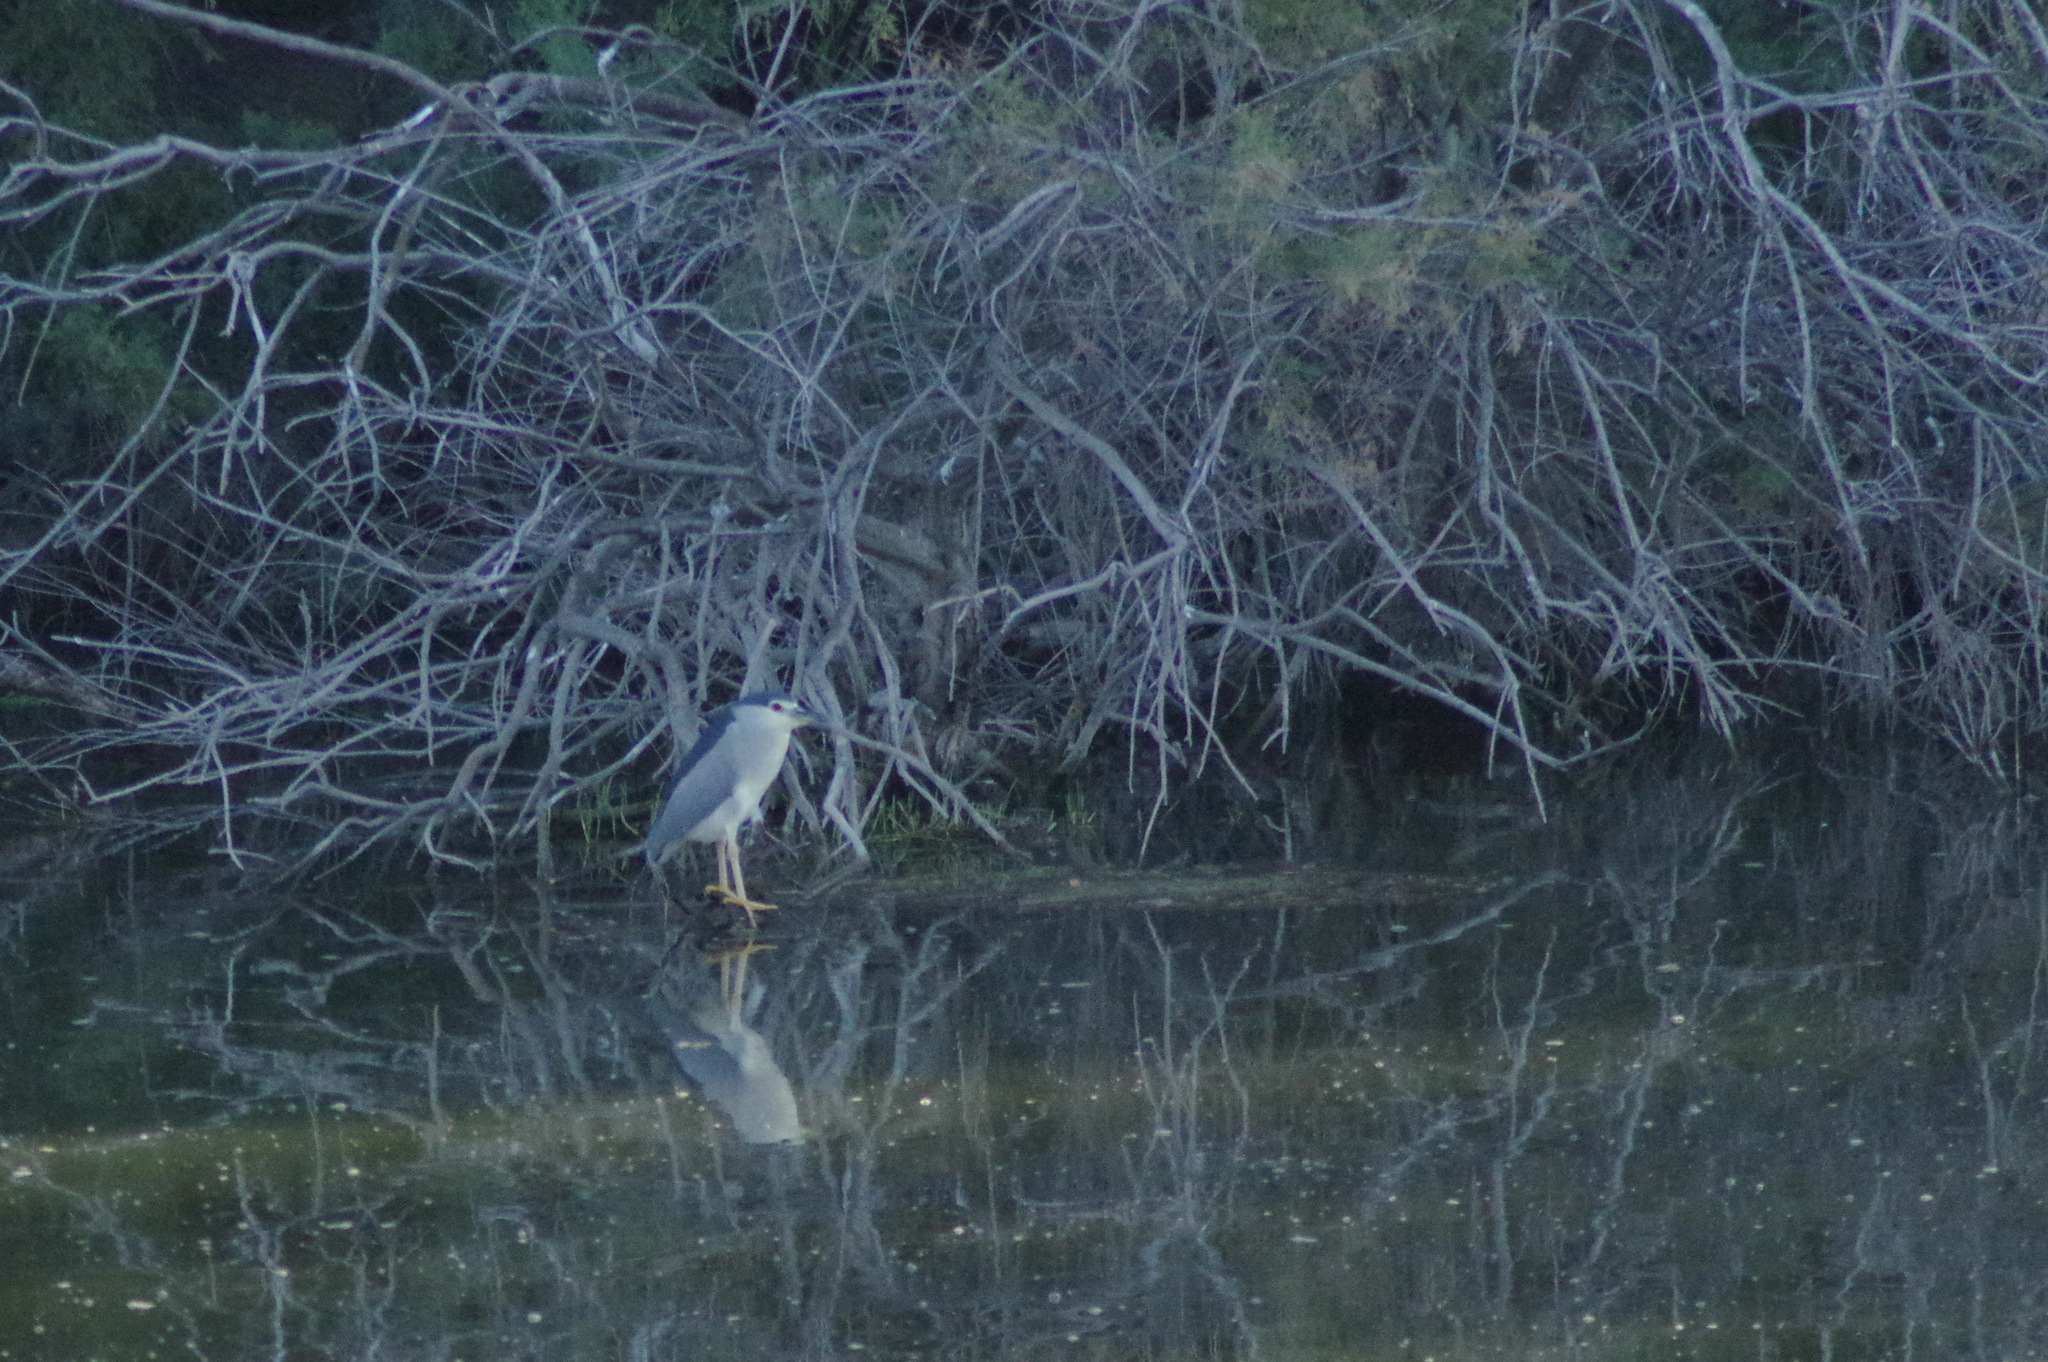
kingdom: Animalia
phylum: Chordata
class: Aves
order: Pelecaniformes
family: Ardeidae
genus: Nycticorax
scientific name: Nycticorax nycticorax
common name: Black-crowned night heron
